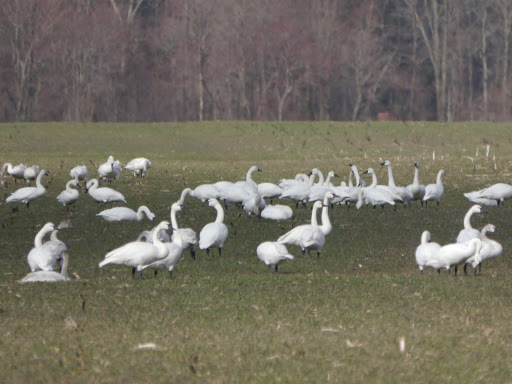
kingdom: Animalia
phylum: Chordata
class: Aves
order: Anseriformes
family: Anatidae
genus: Cygnus
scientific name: Cygnus columbianus
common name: Tundra swan
